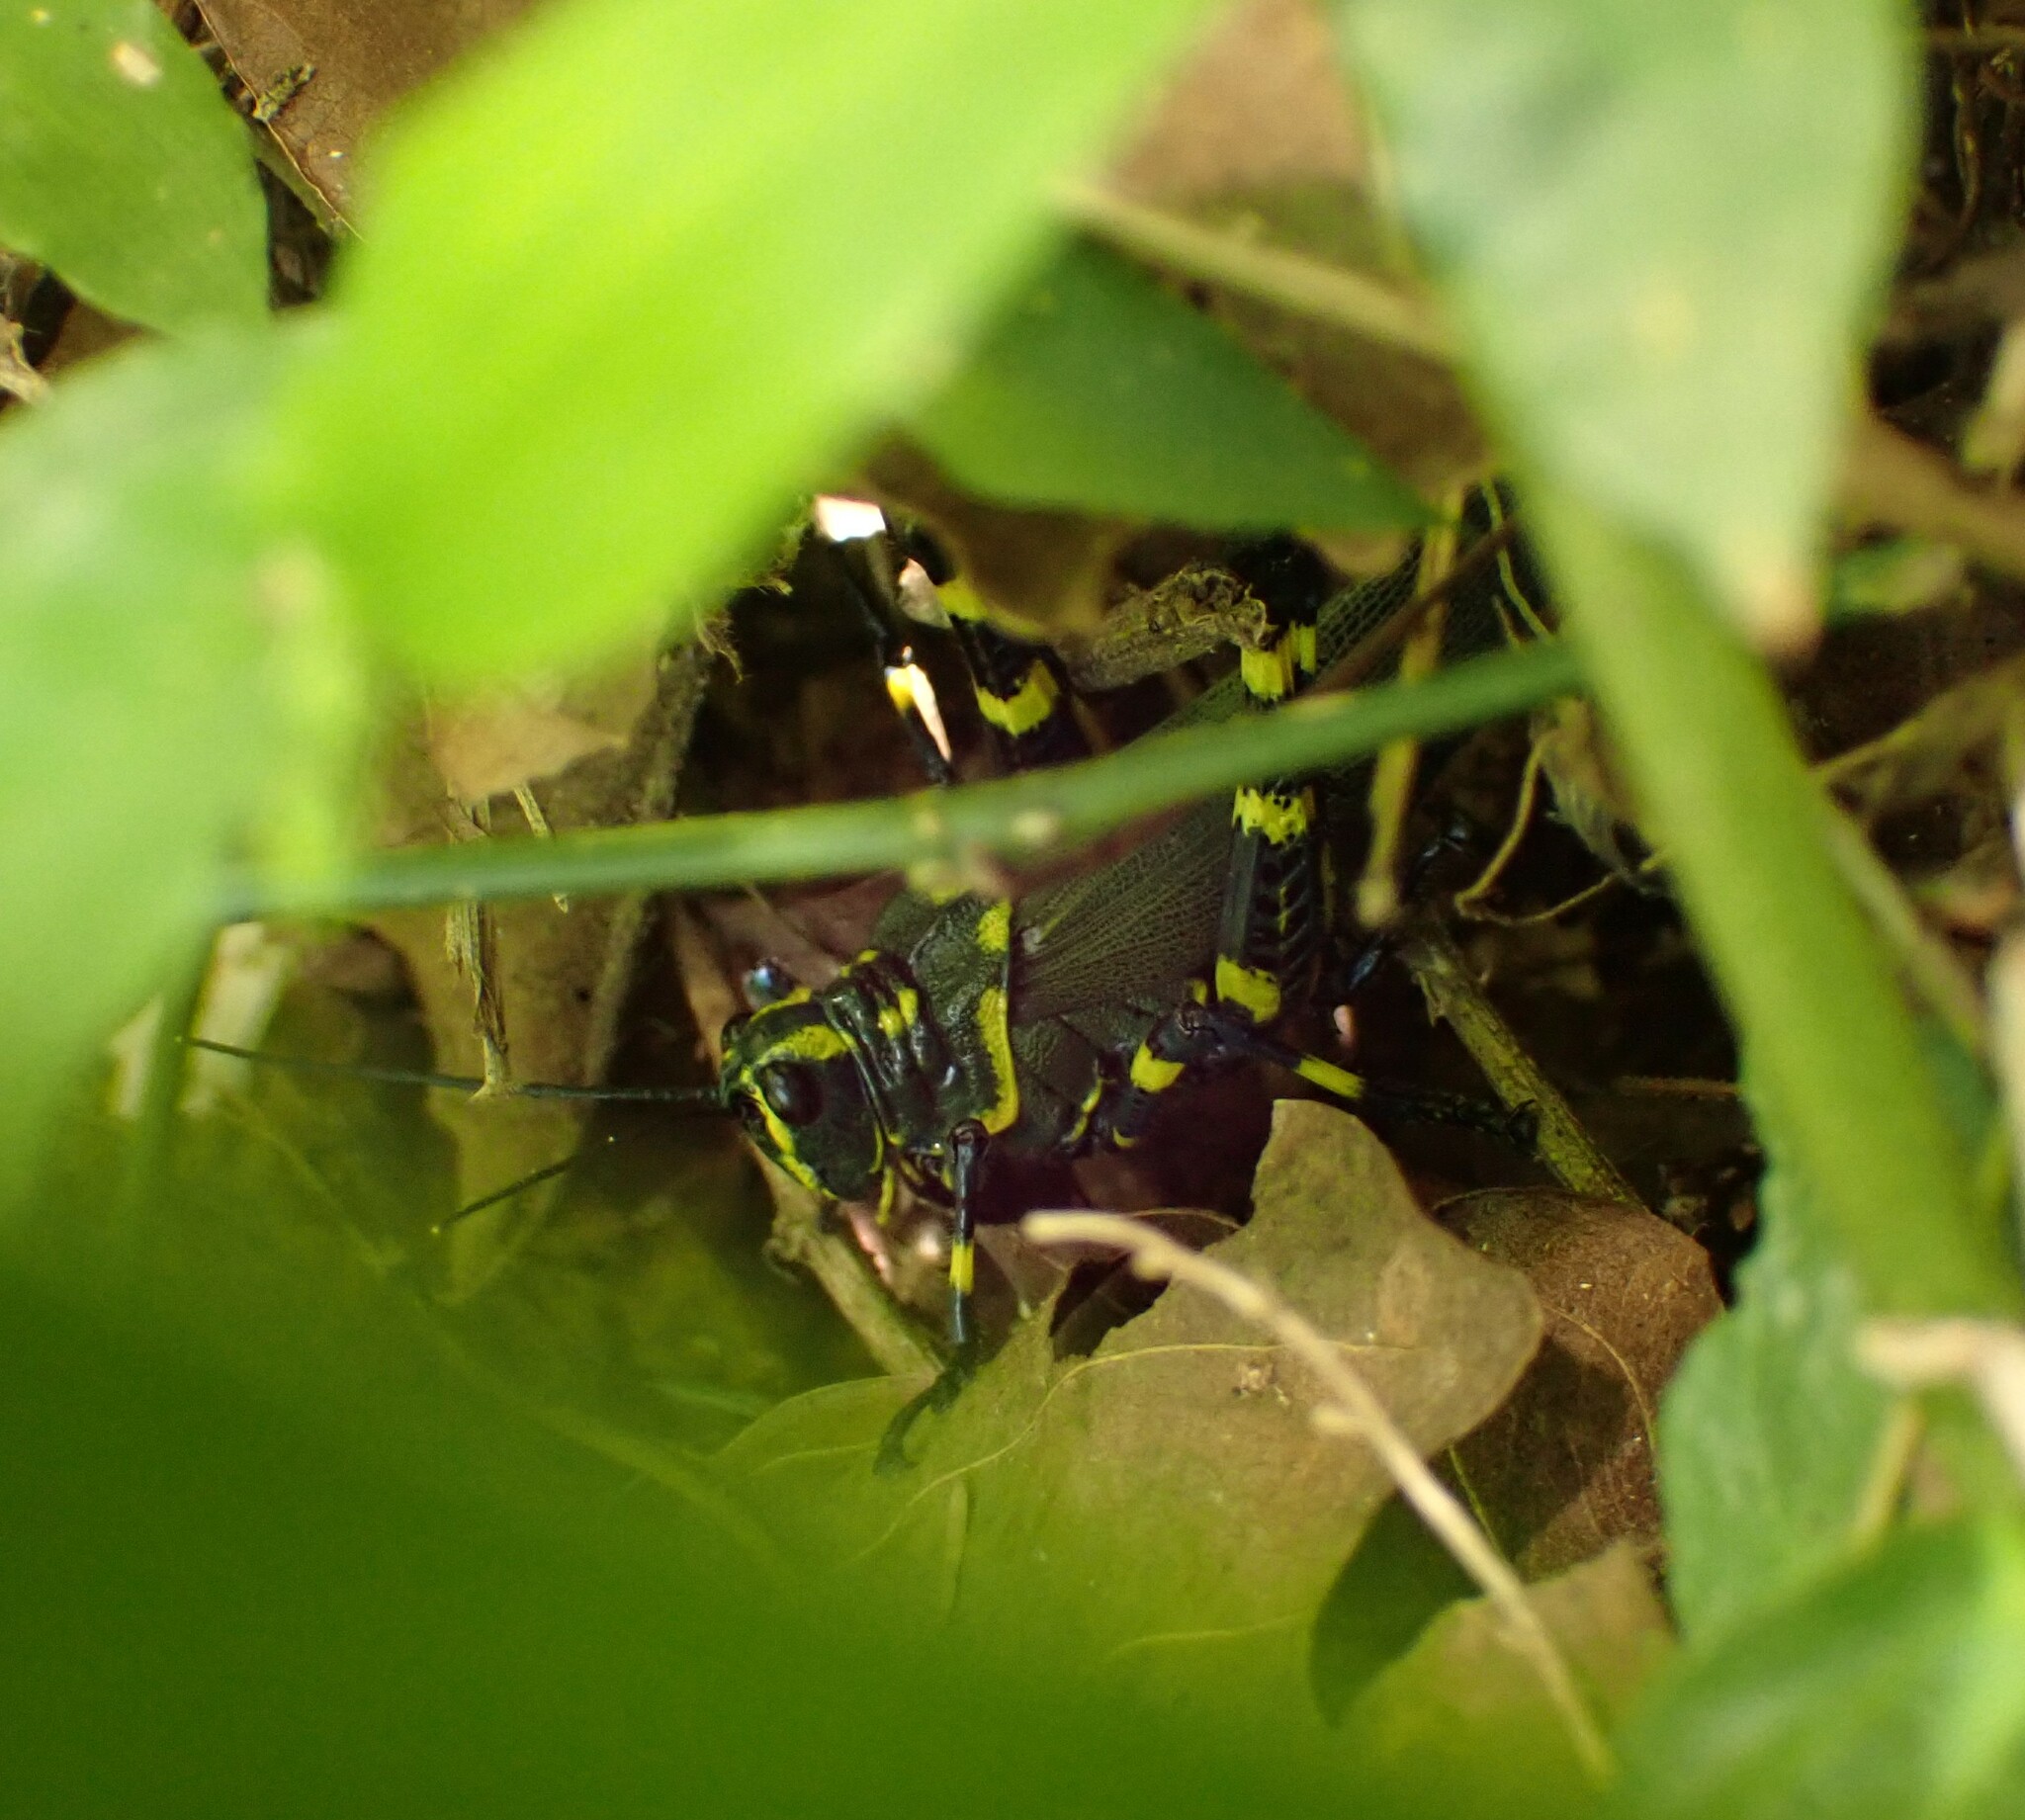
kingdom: Animalia
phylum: Arthropoda
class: Insecta
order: Orthoptera
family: Romaleidae
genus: Chromacris
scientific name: Chromacris speciosa
